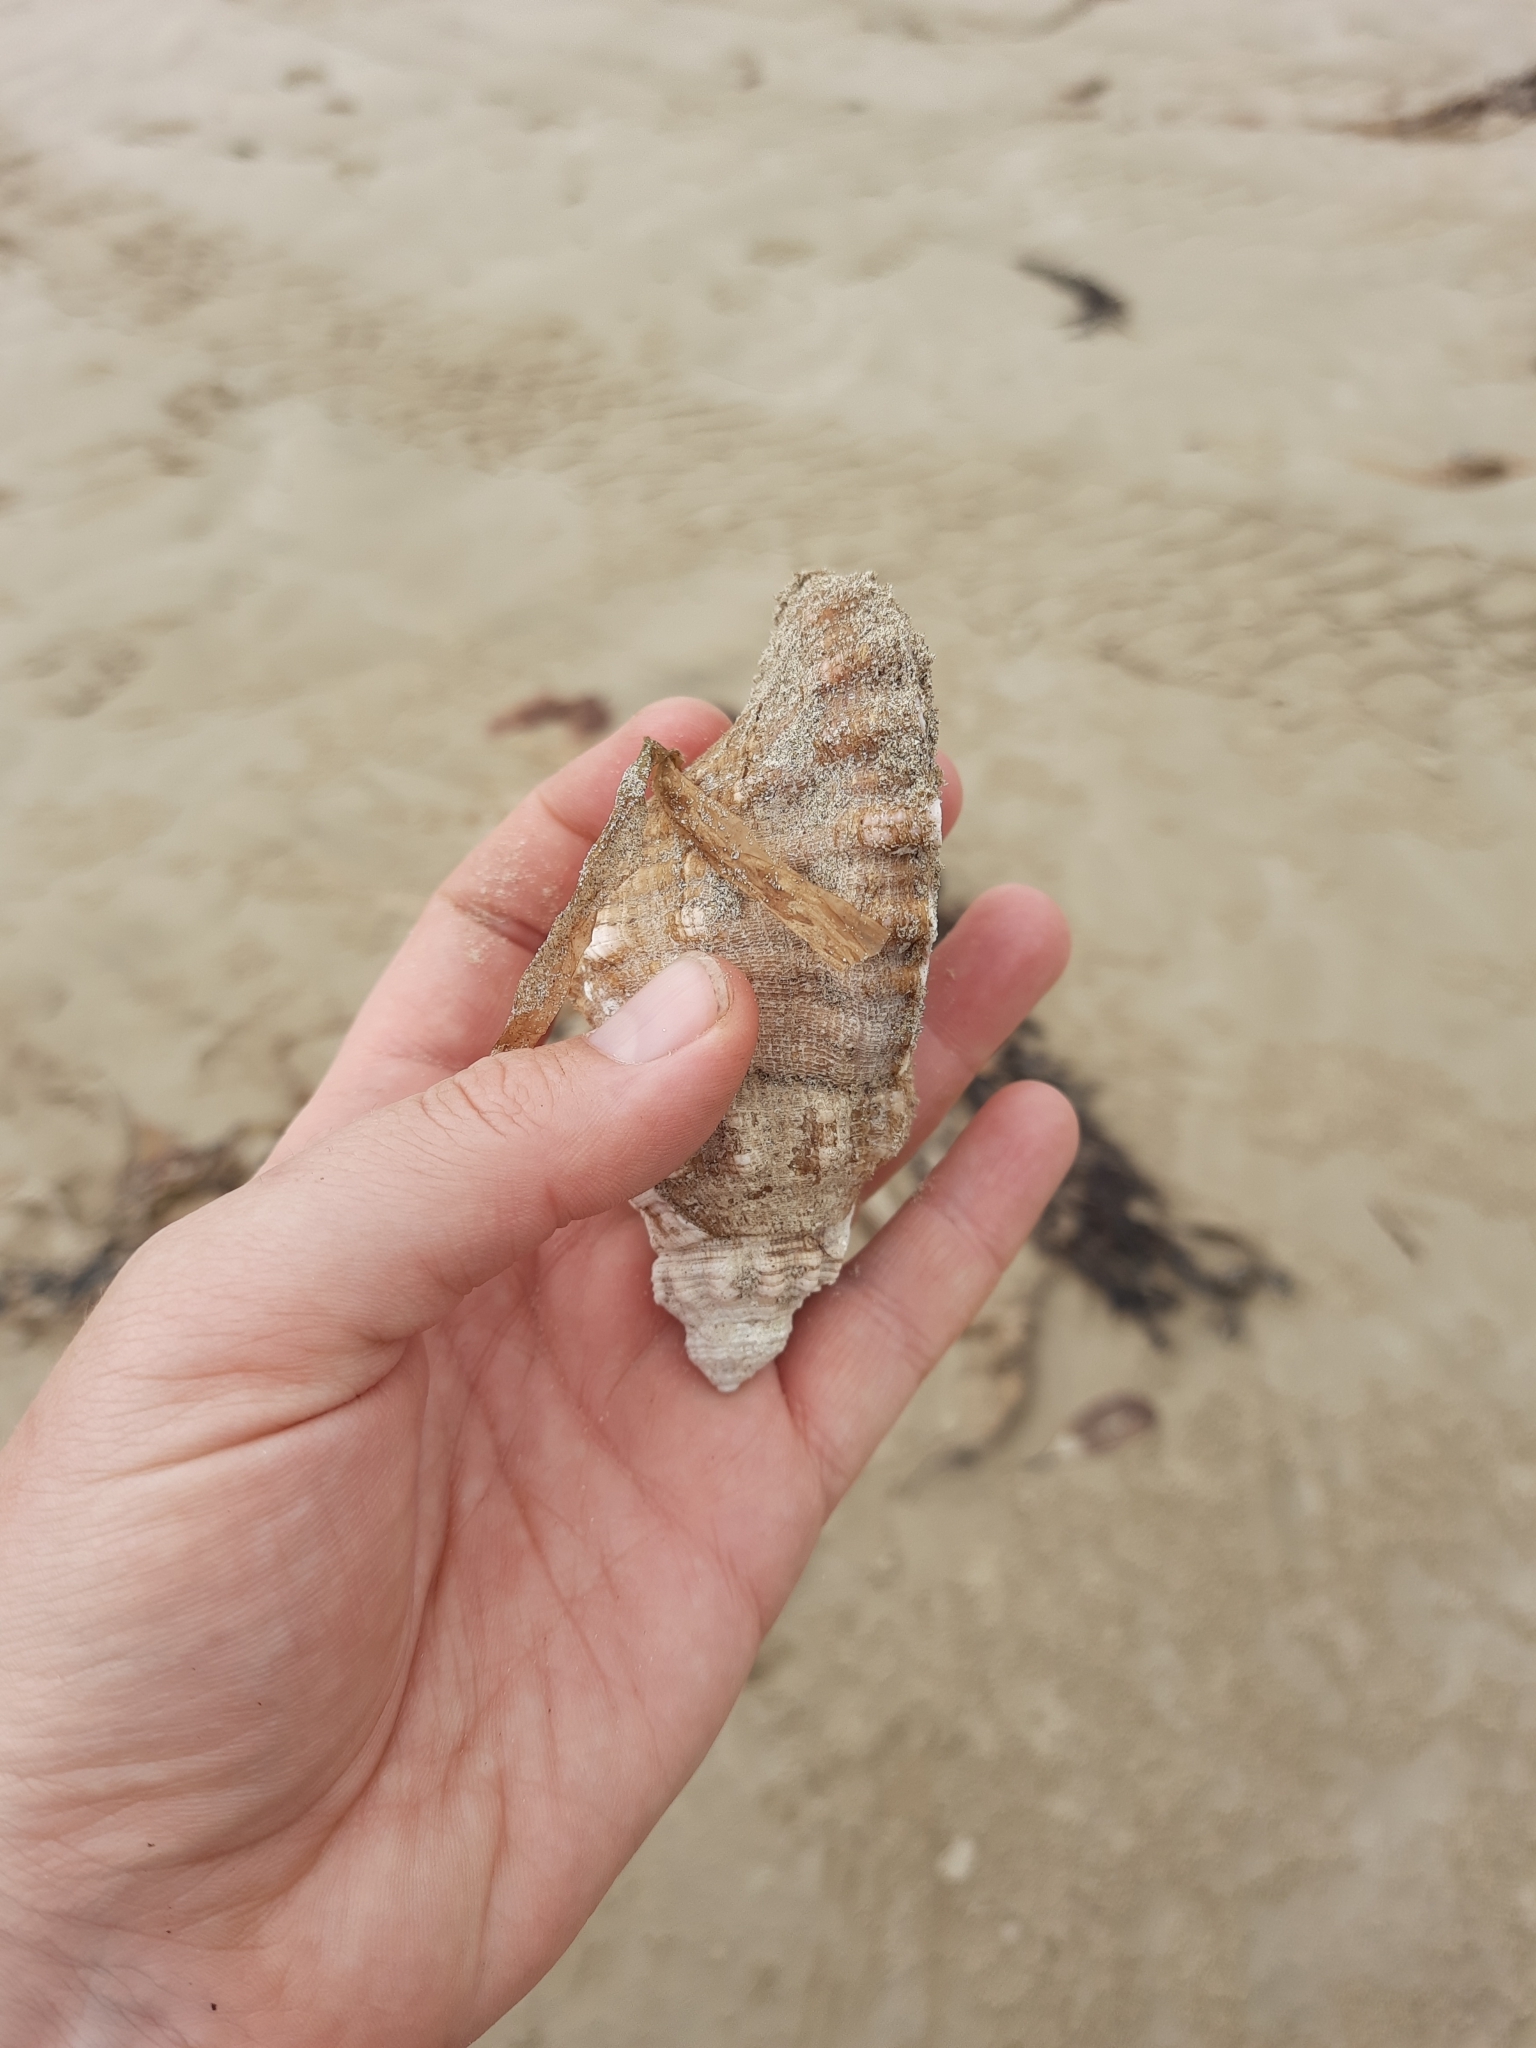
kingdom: Animalia
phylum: Mollusca
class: Gastropoda
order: Littorinimorpha
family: Cymatiidae
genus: Cabestana
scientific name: Cabestana spengleri
